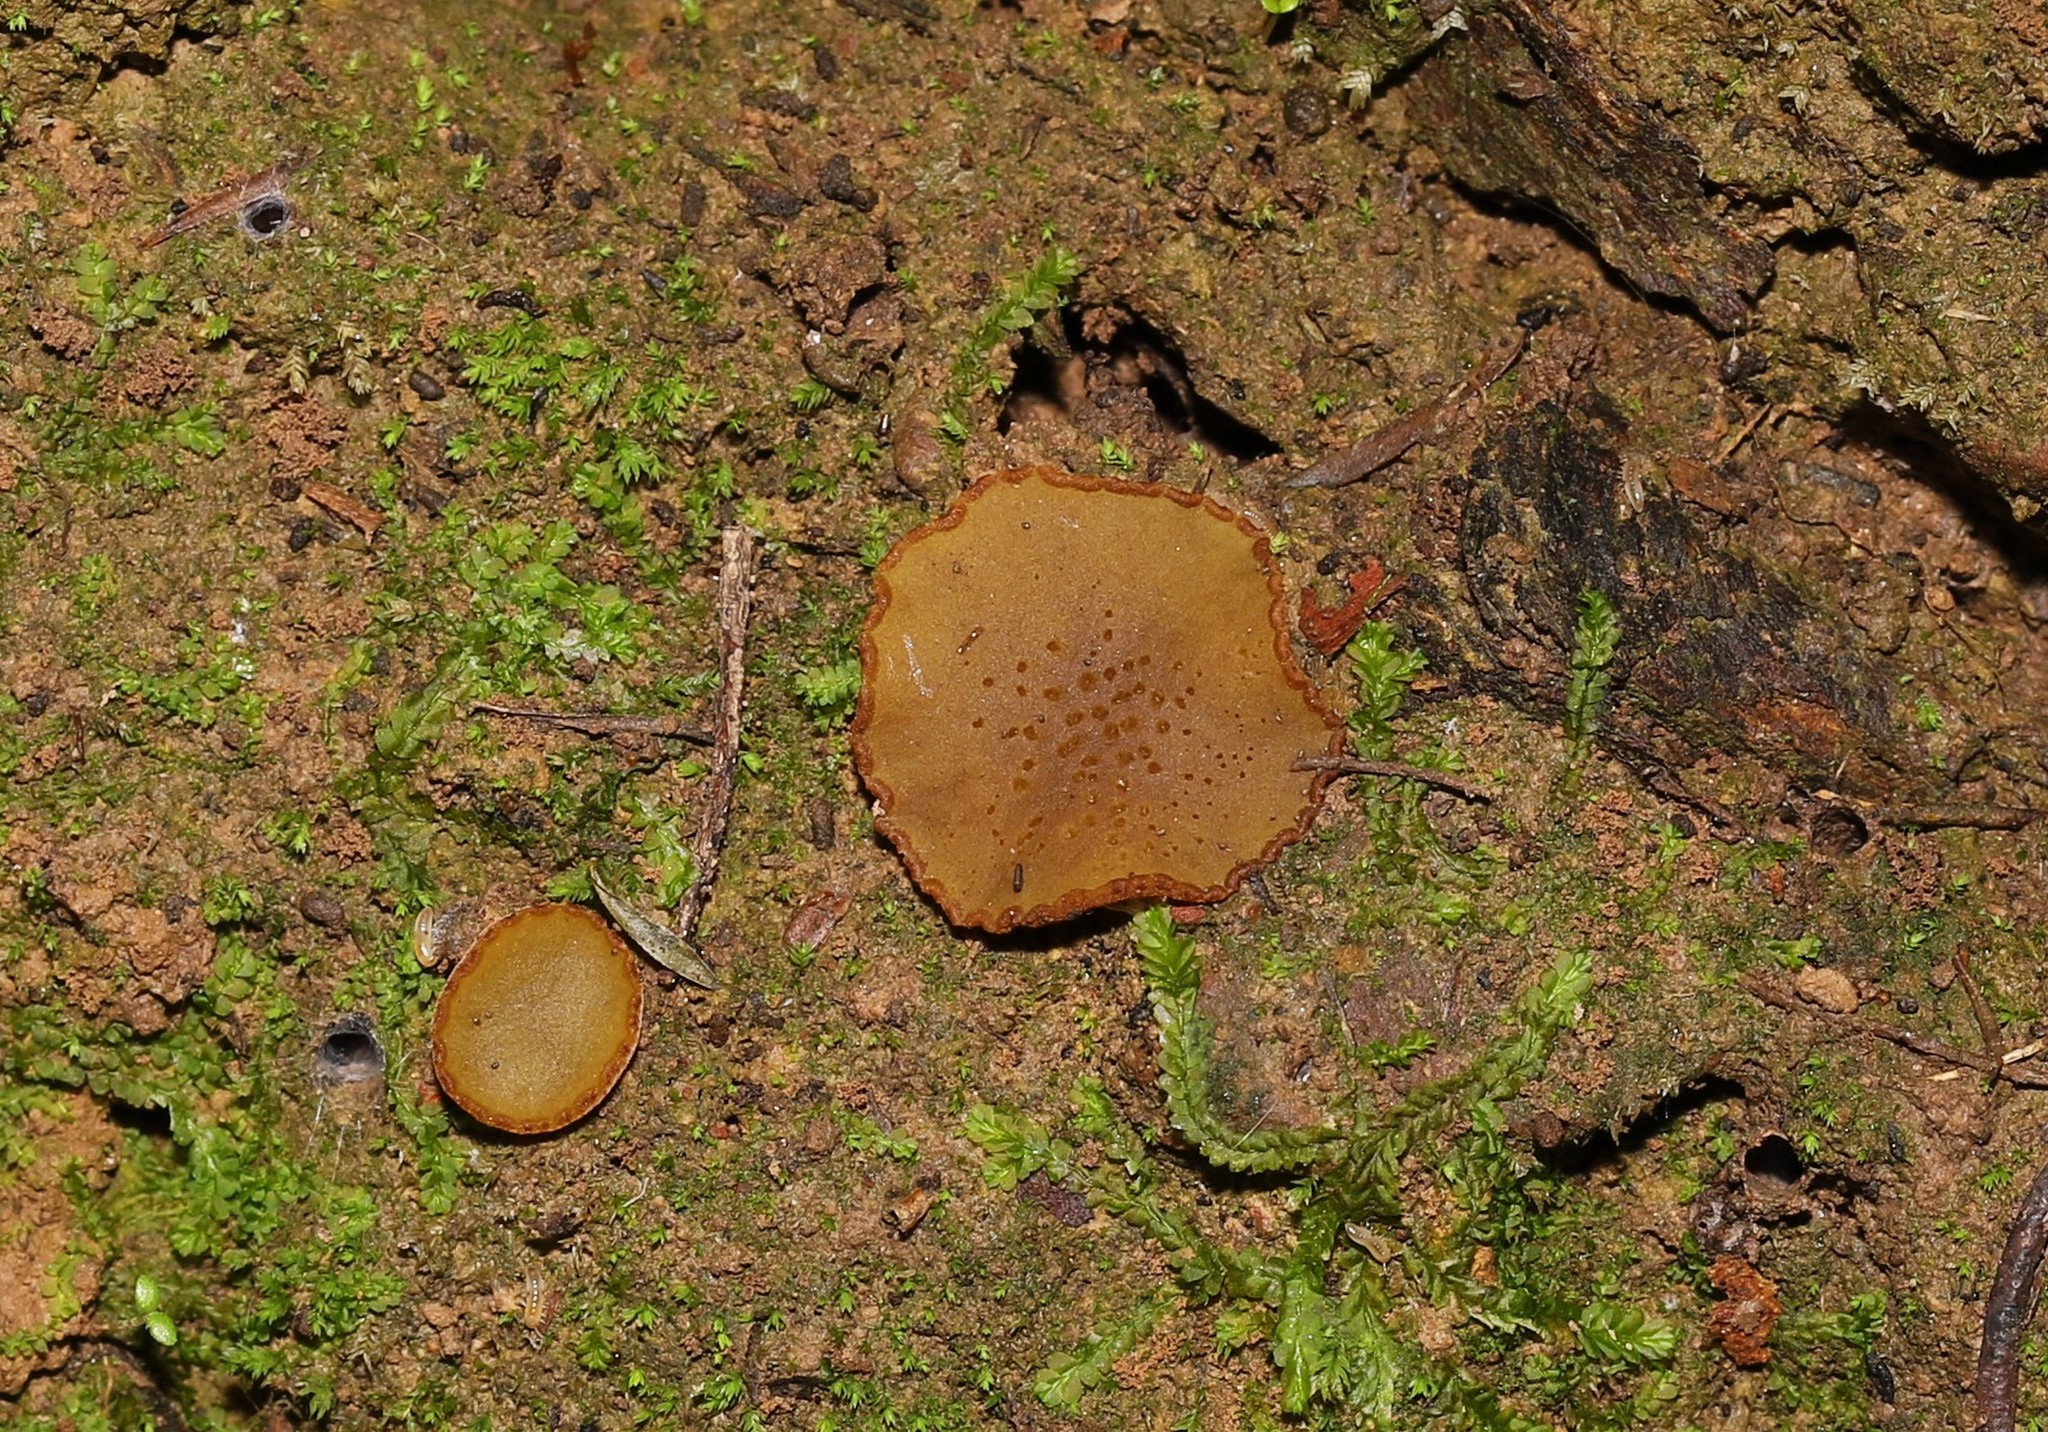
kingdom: Fungi
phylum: Ascomycota
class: Pezizomycetes
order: Pezizales
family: Pyronemataceae
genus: Aleurina
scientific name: Aleurina ferruginea
